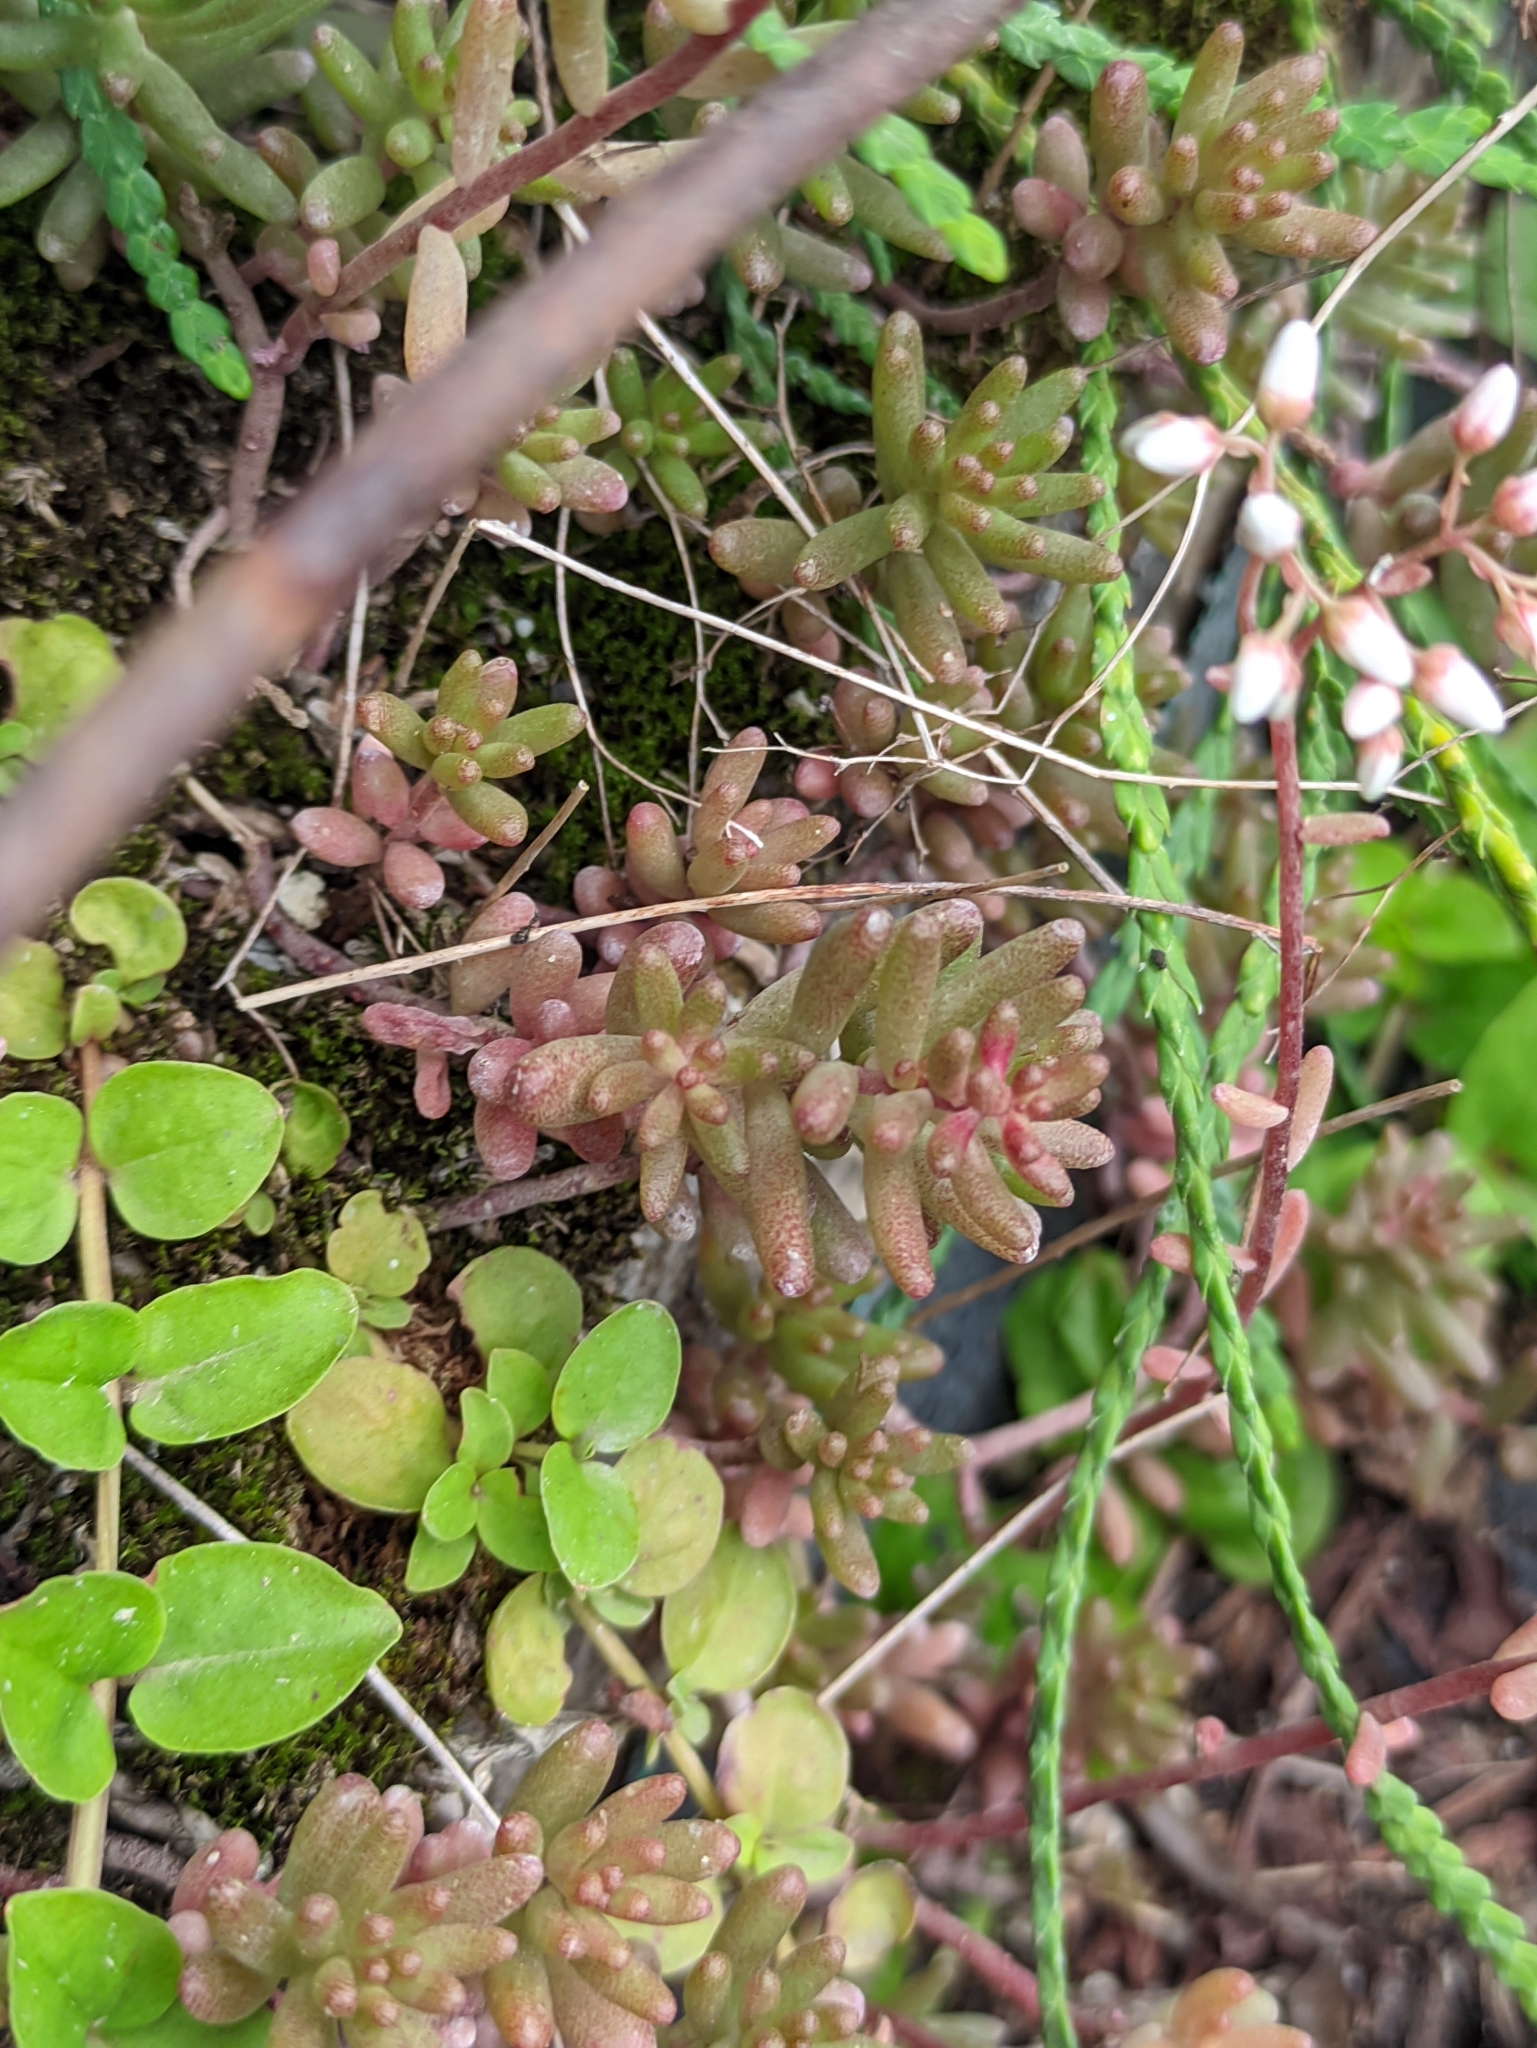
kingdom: Plantae
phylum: Tracheophyta
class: Magnoliopsida
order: Saxifragales
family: Crassulaceae
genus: Sedum
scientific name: Sedum album
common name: White stonecrop
